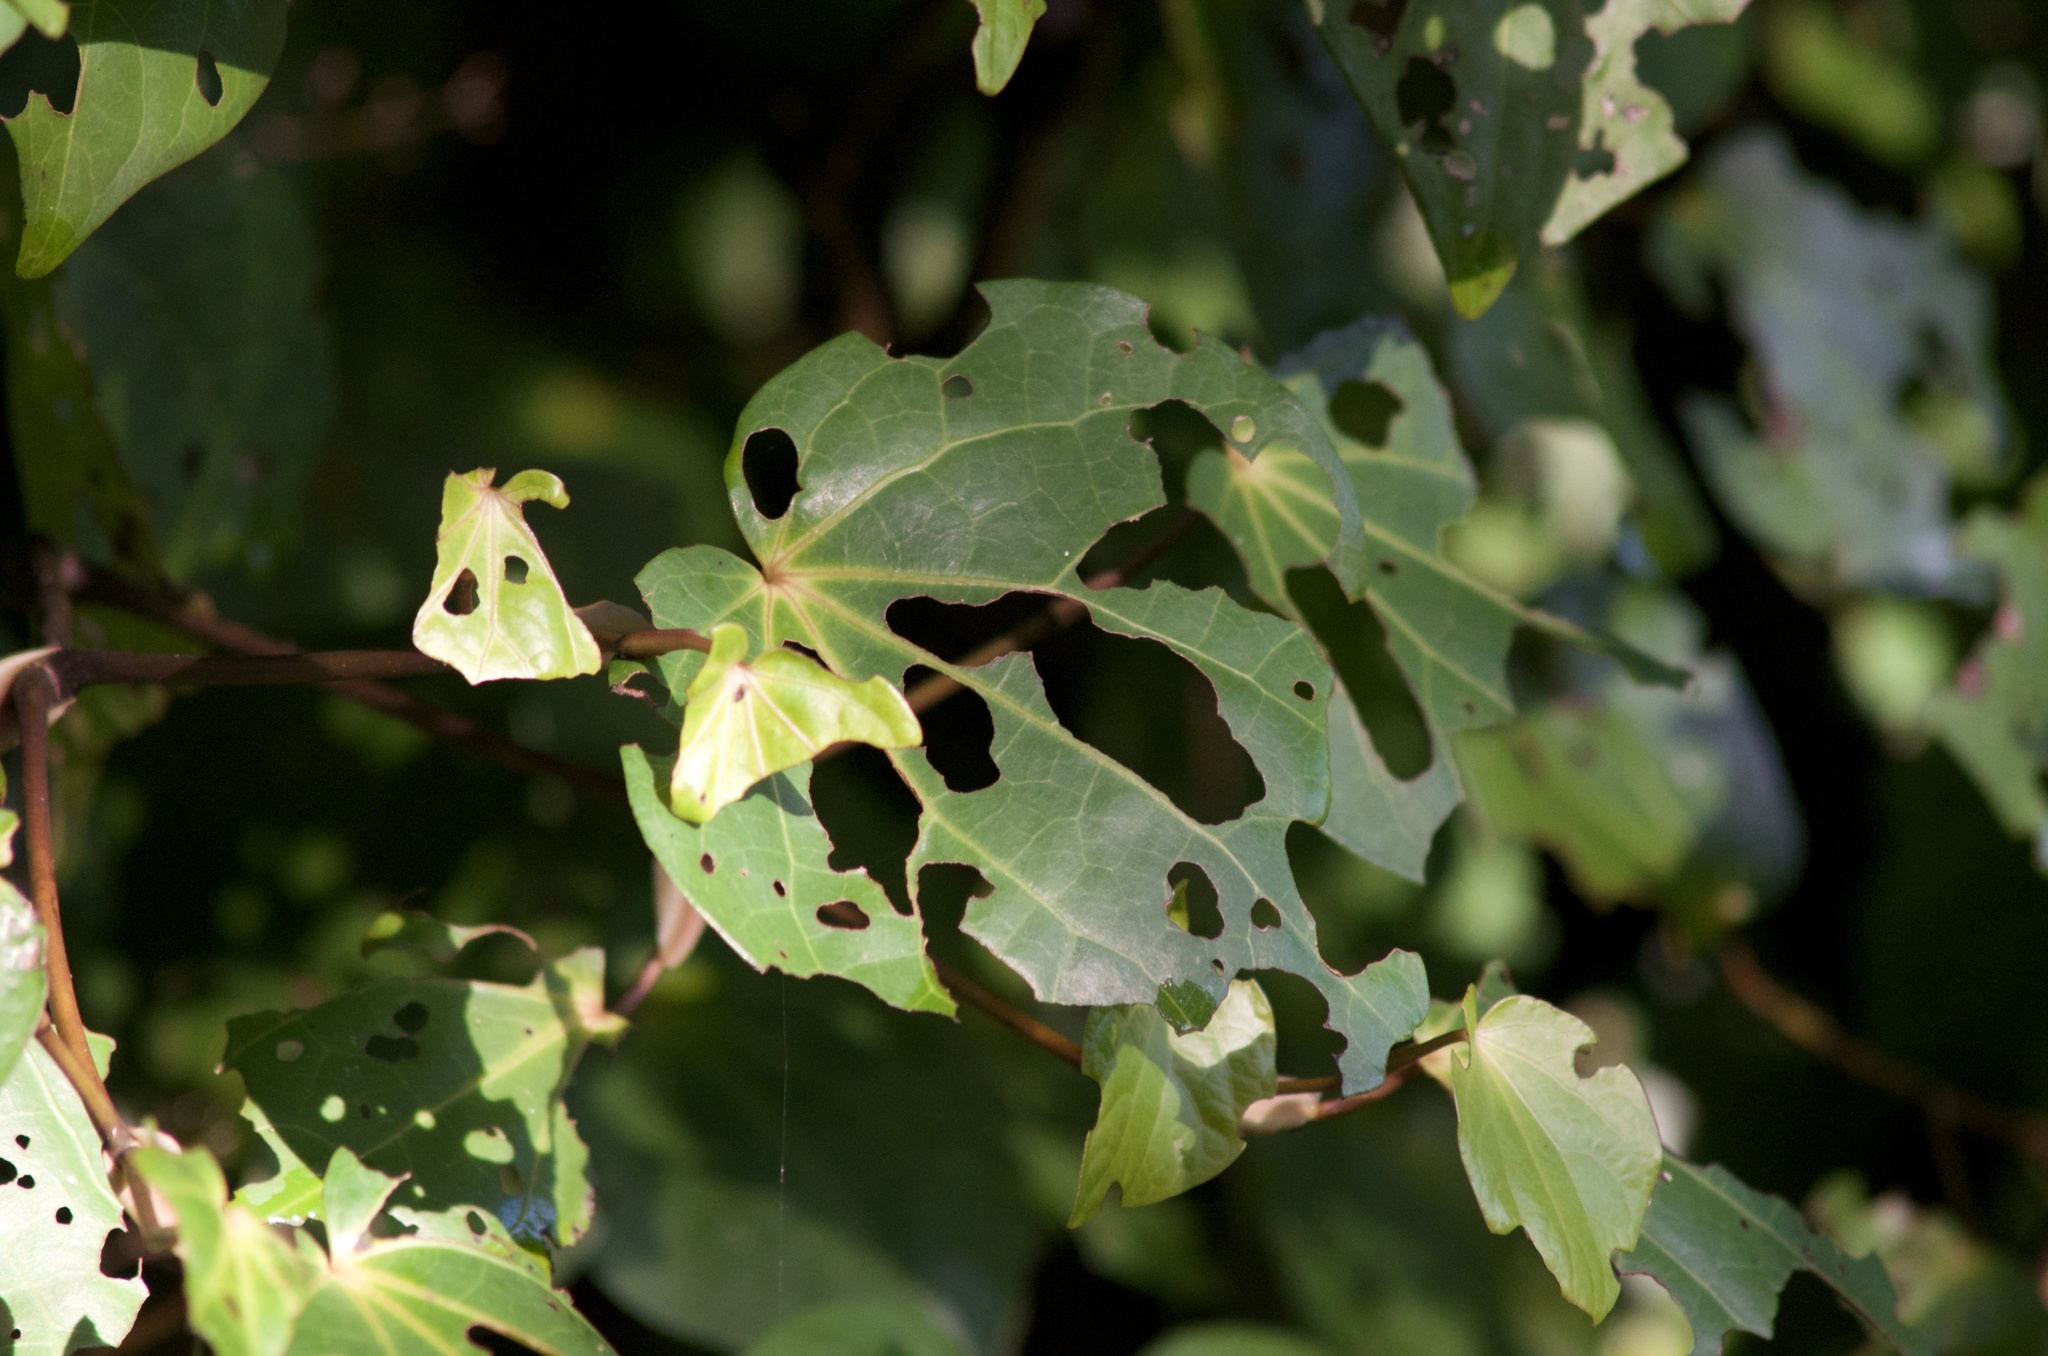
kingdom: Plantae
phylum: Tracheophyta
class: Magnoliopsida
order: Piperales
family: Piperaceae
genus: Macropiper
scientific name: Macropiper excelsum
